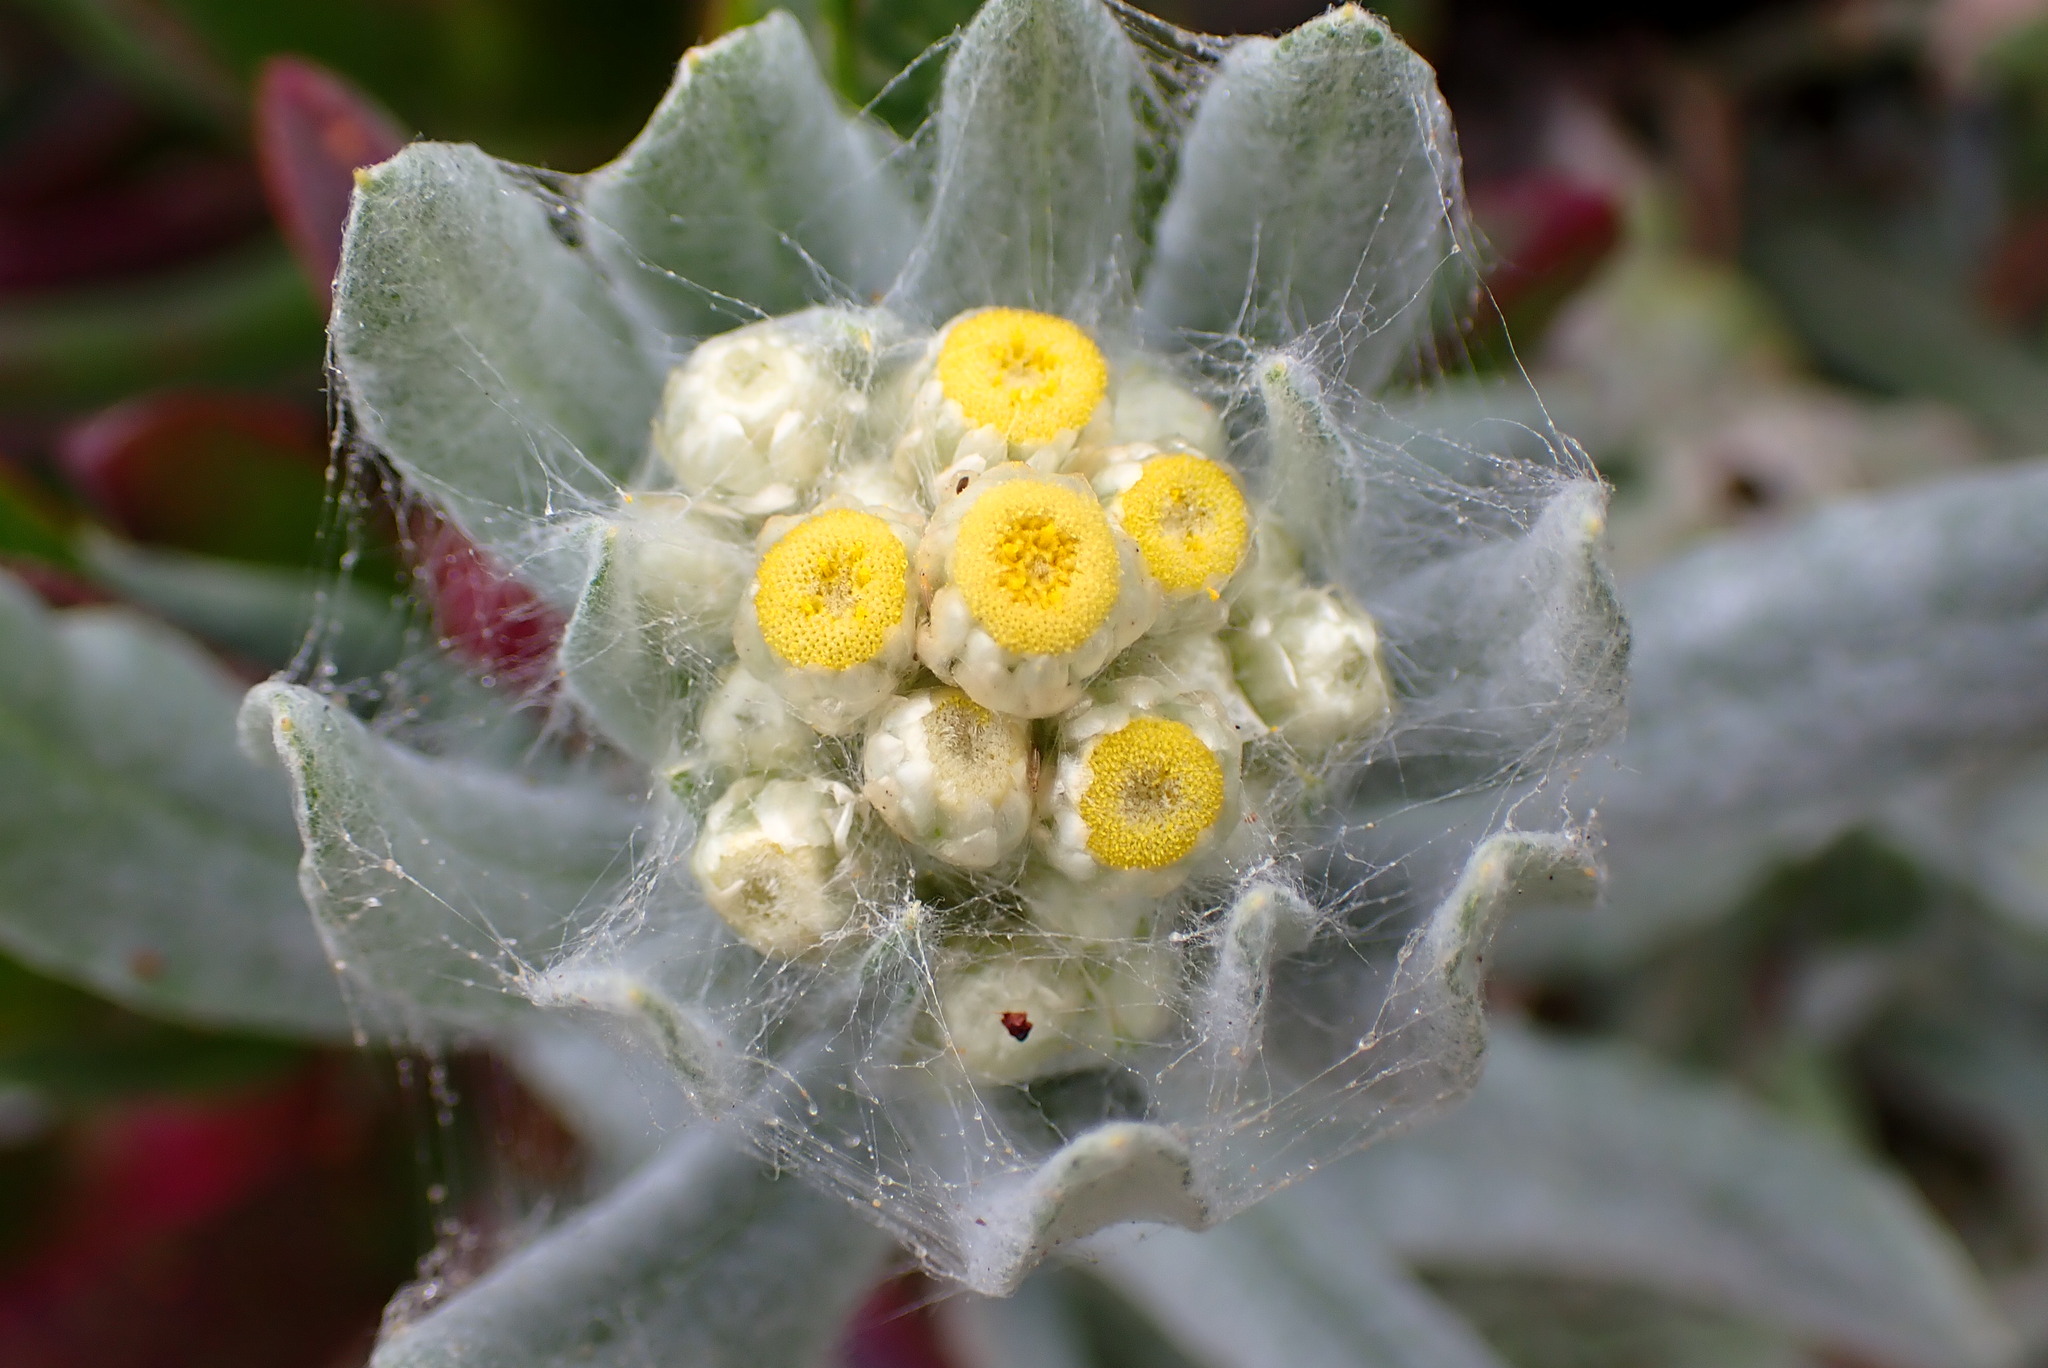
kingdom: Plantae
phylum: Tracheophyta
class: Magnoliopsida
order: Asterales
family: Asteraceae
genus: Pseudognaphalium
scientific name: Pseudognaphalium stramineum
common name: Cotton-batting-plant
